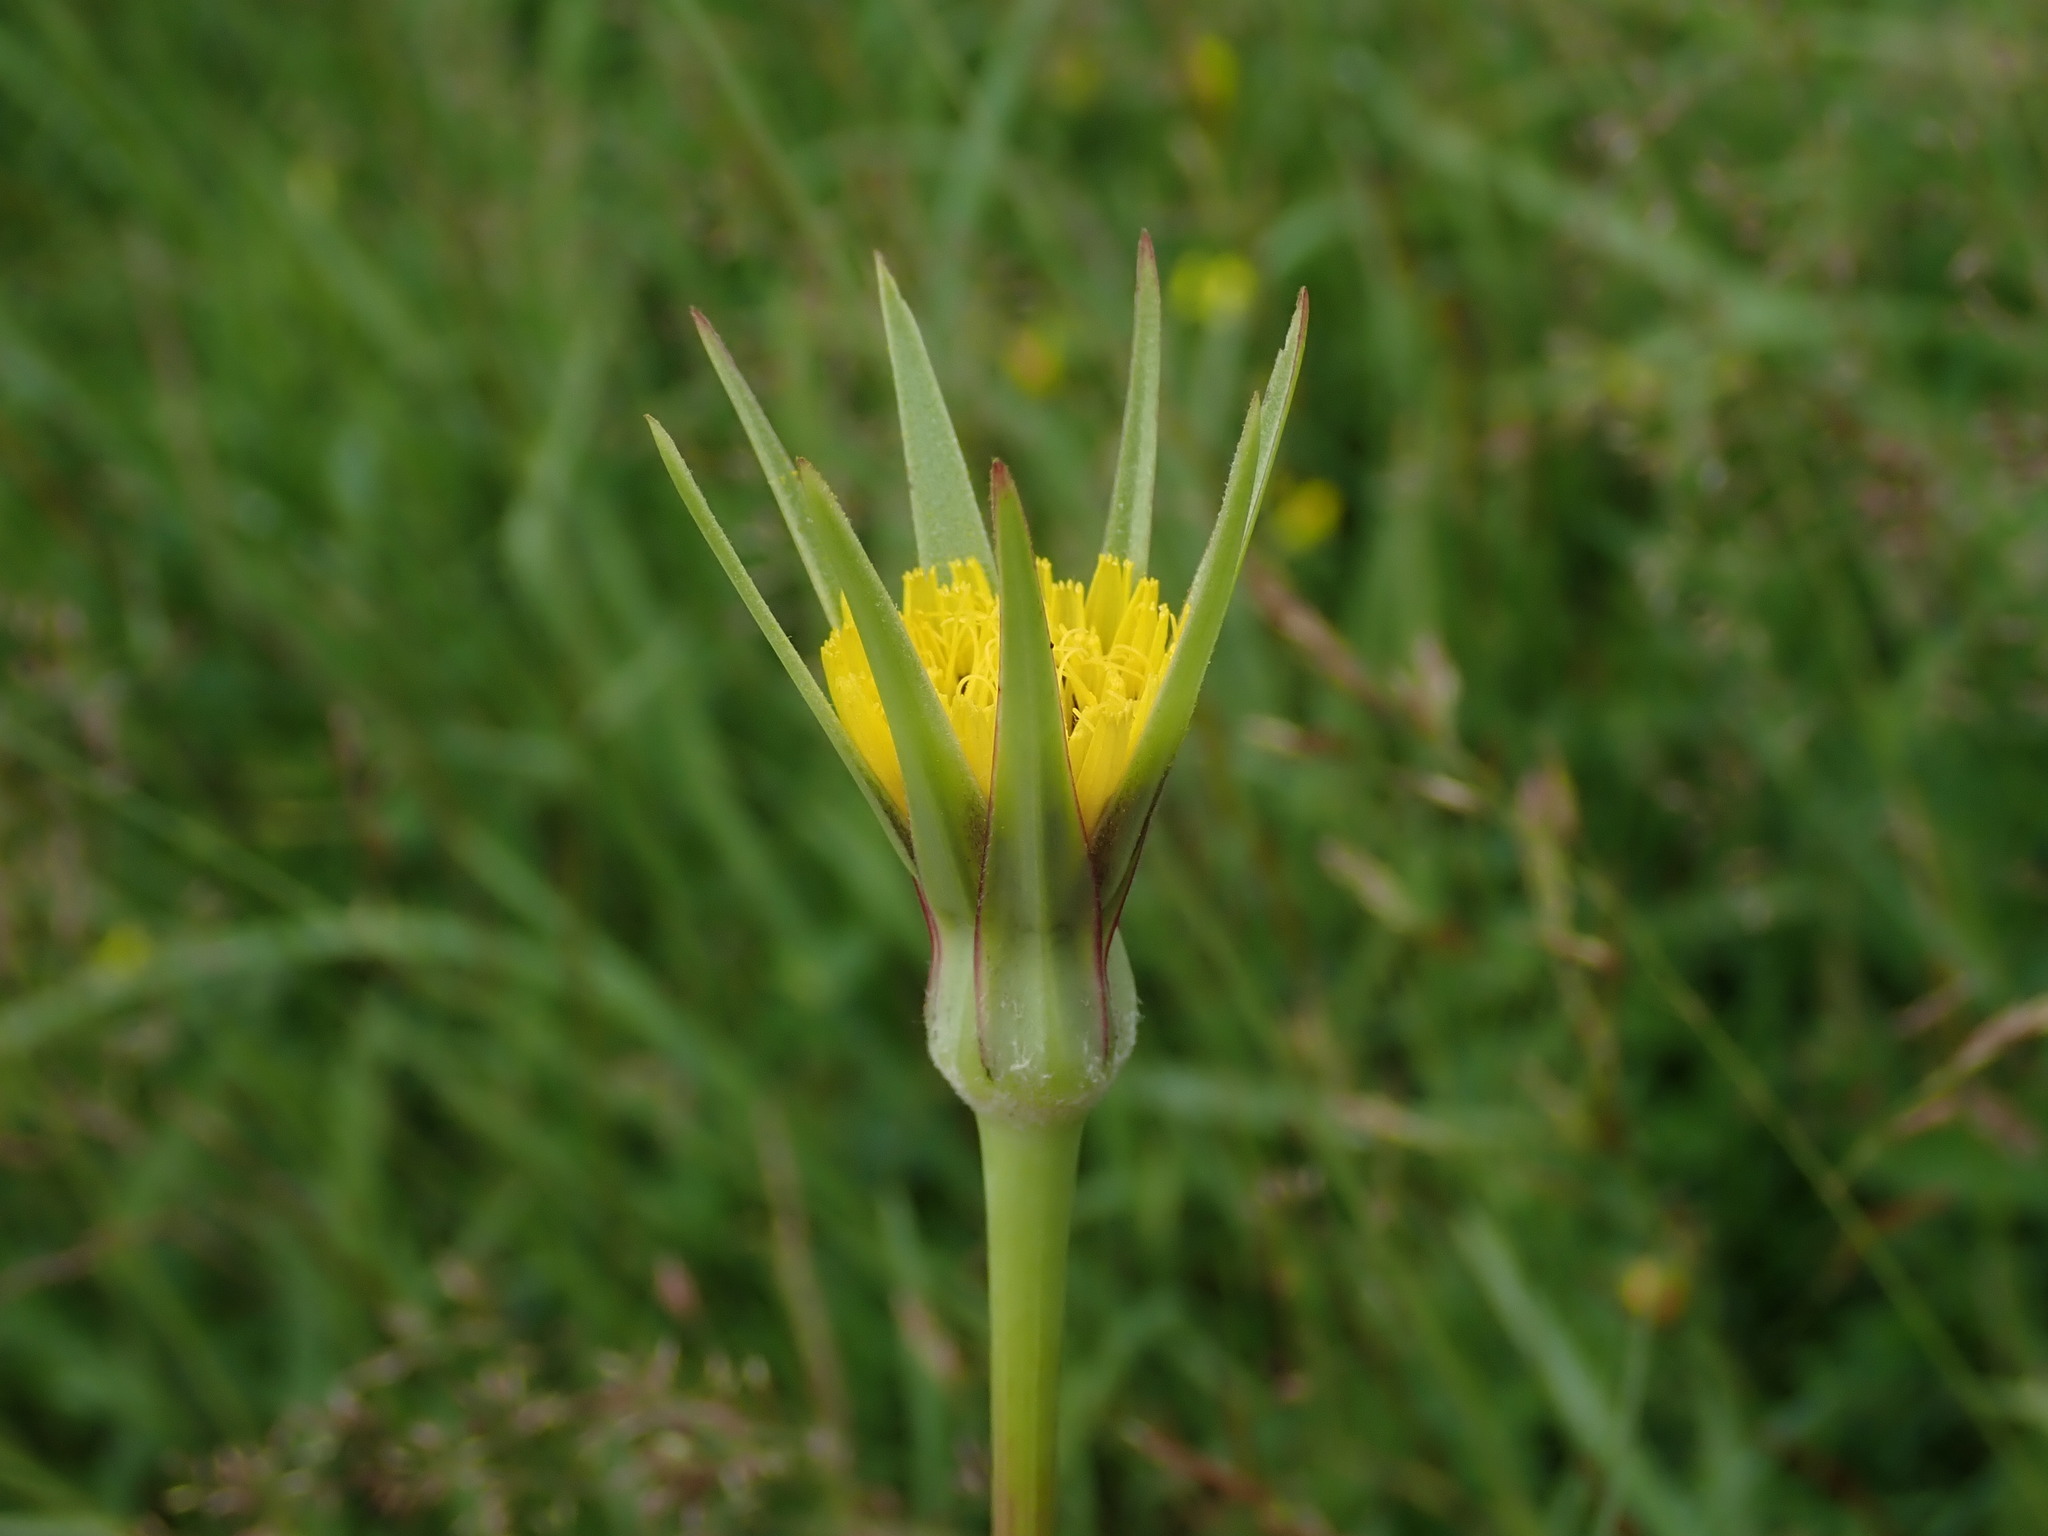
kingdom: Plantae
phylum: Tracheophyta
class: Magnoliopsida
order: Asterales
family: Asteraceae
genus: Tragopogon
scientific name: Tragopogon minor
